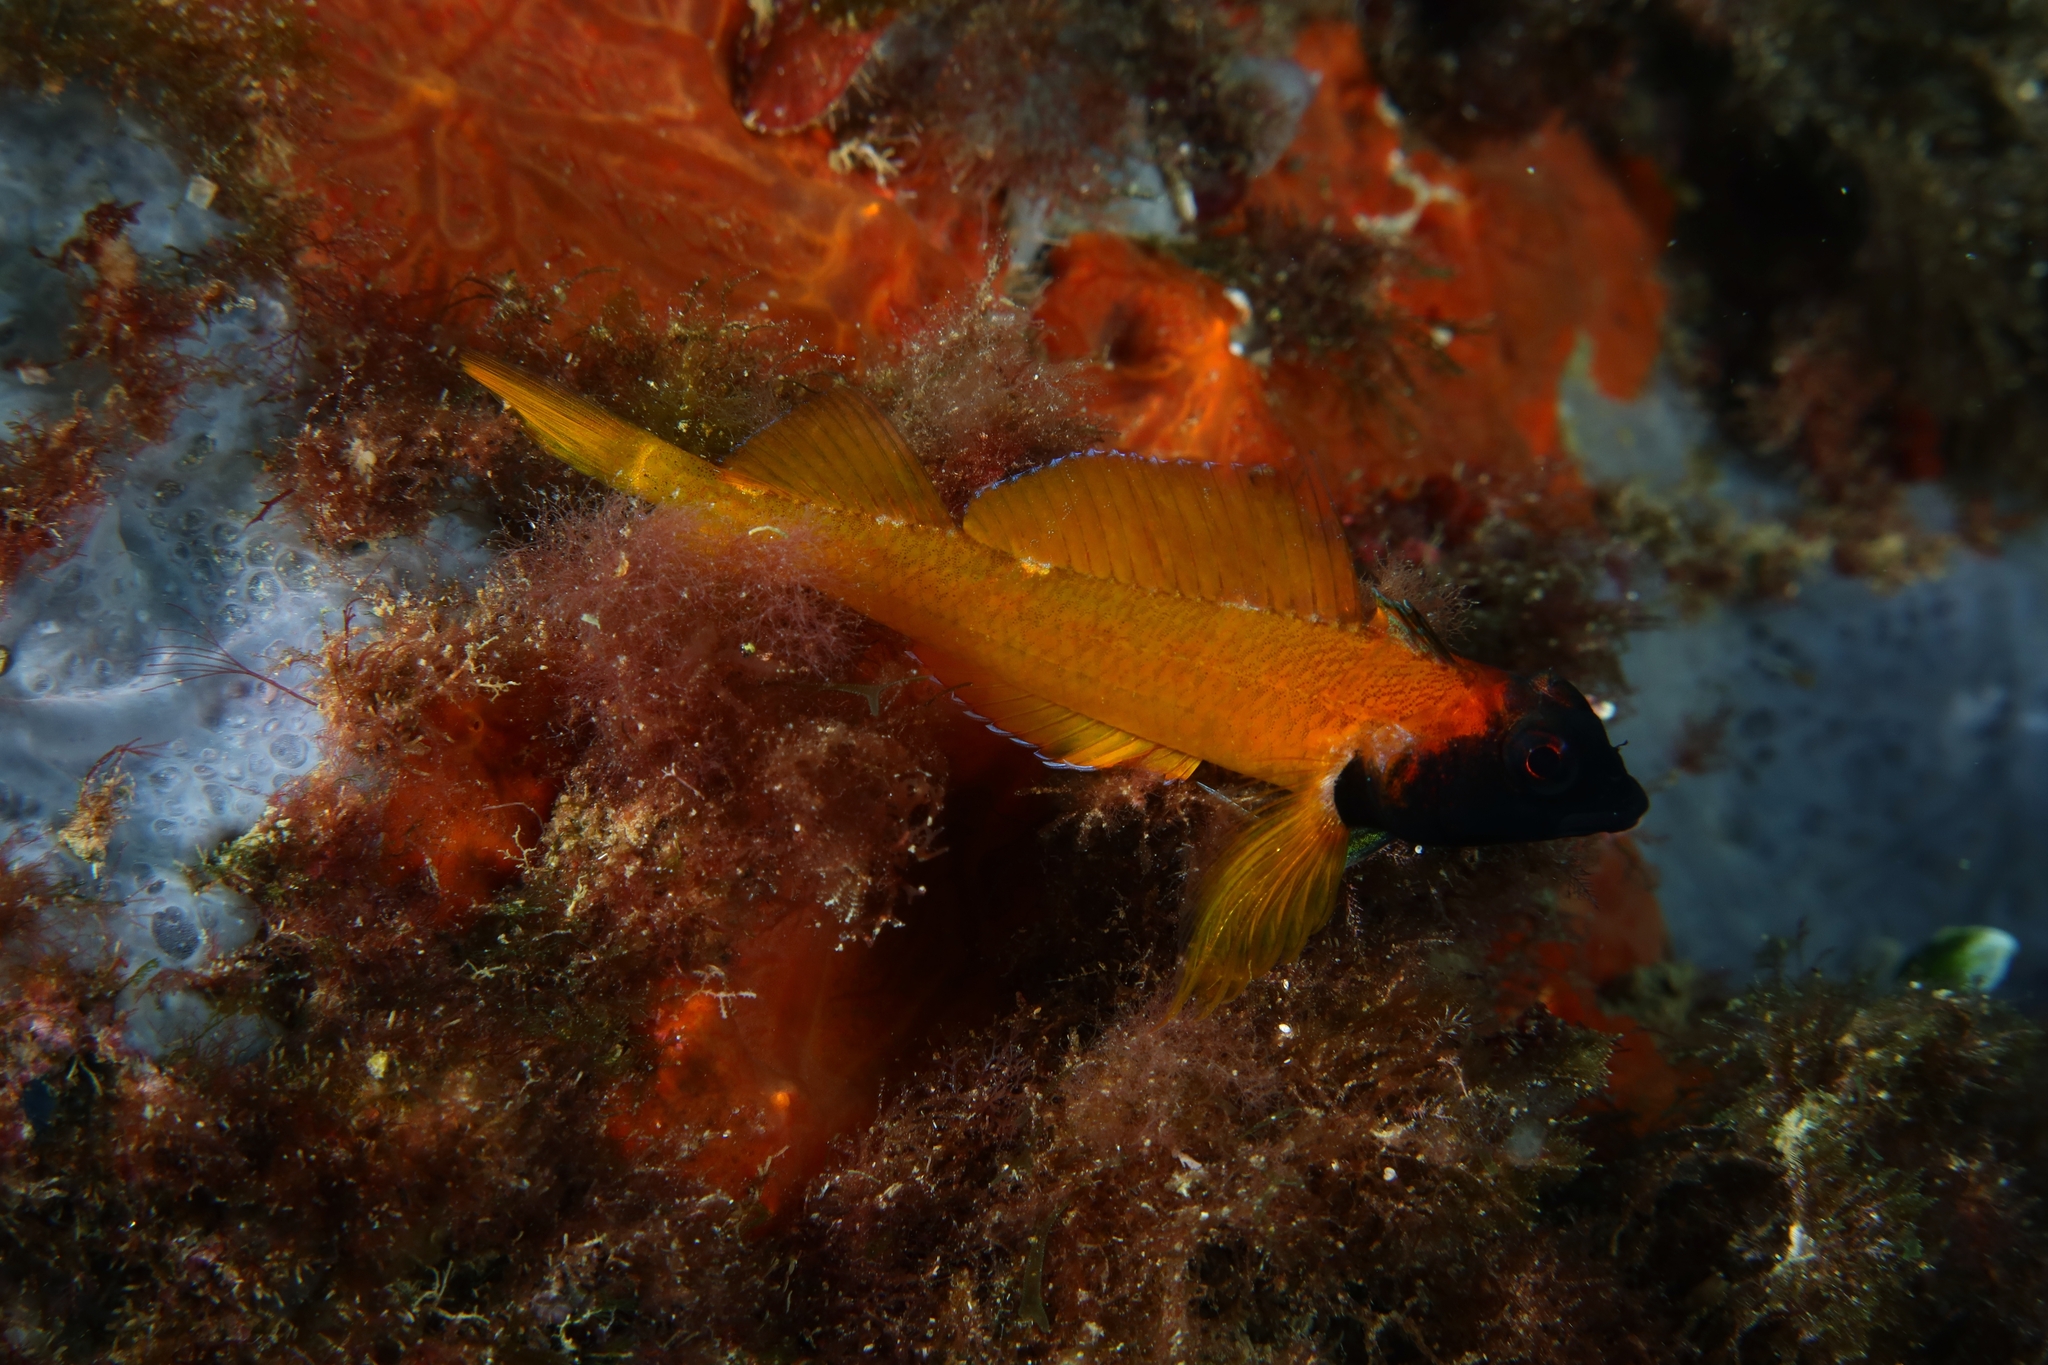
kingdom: Animalia
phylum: Chordata
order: Perciformes
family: Tripterygiidae
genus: Tripterygion
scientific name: Tripterygion delaisi
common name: Black-face blenny
